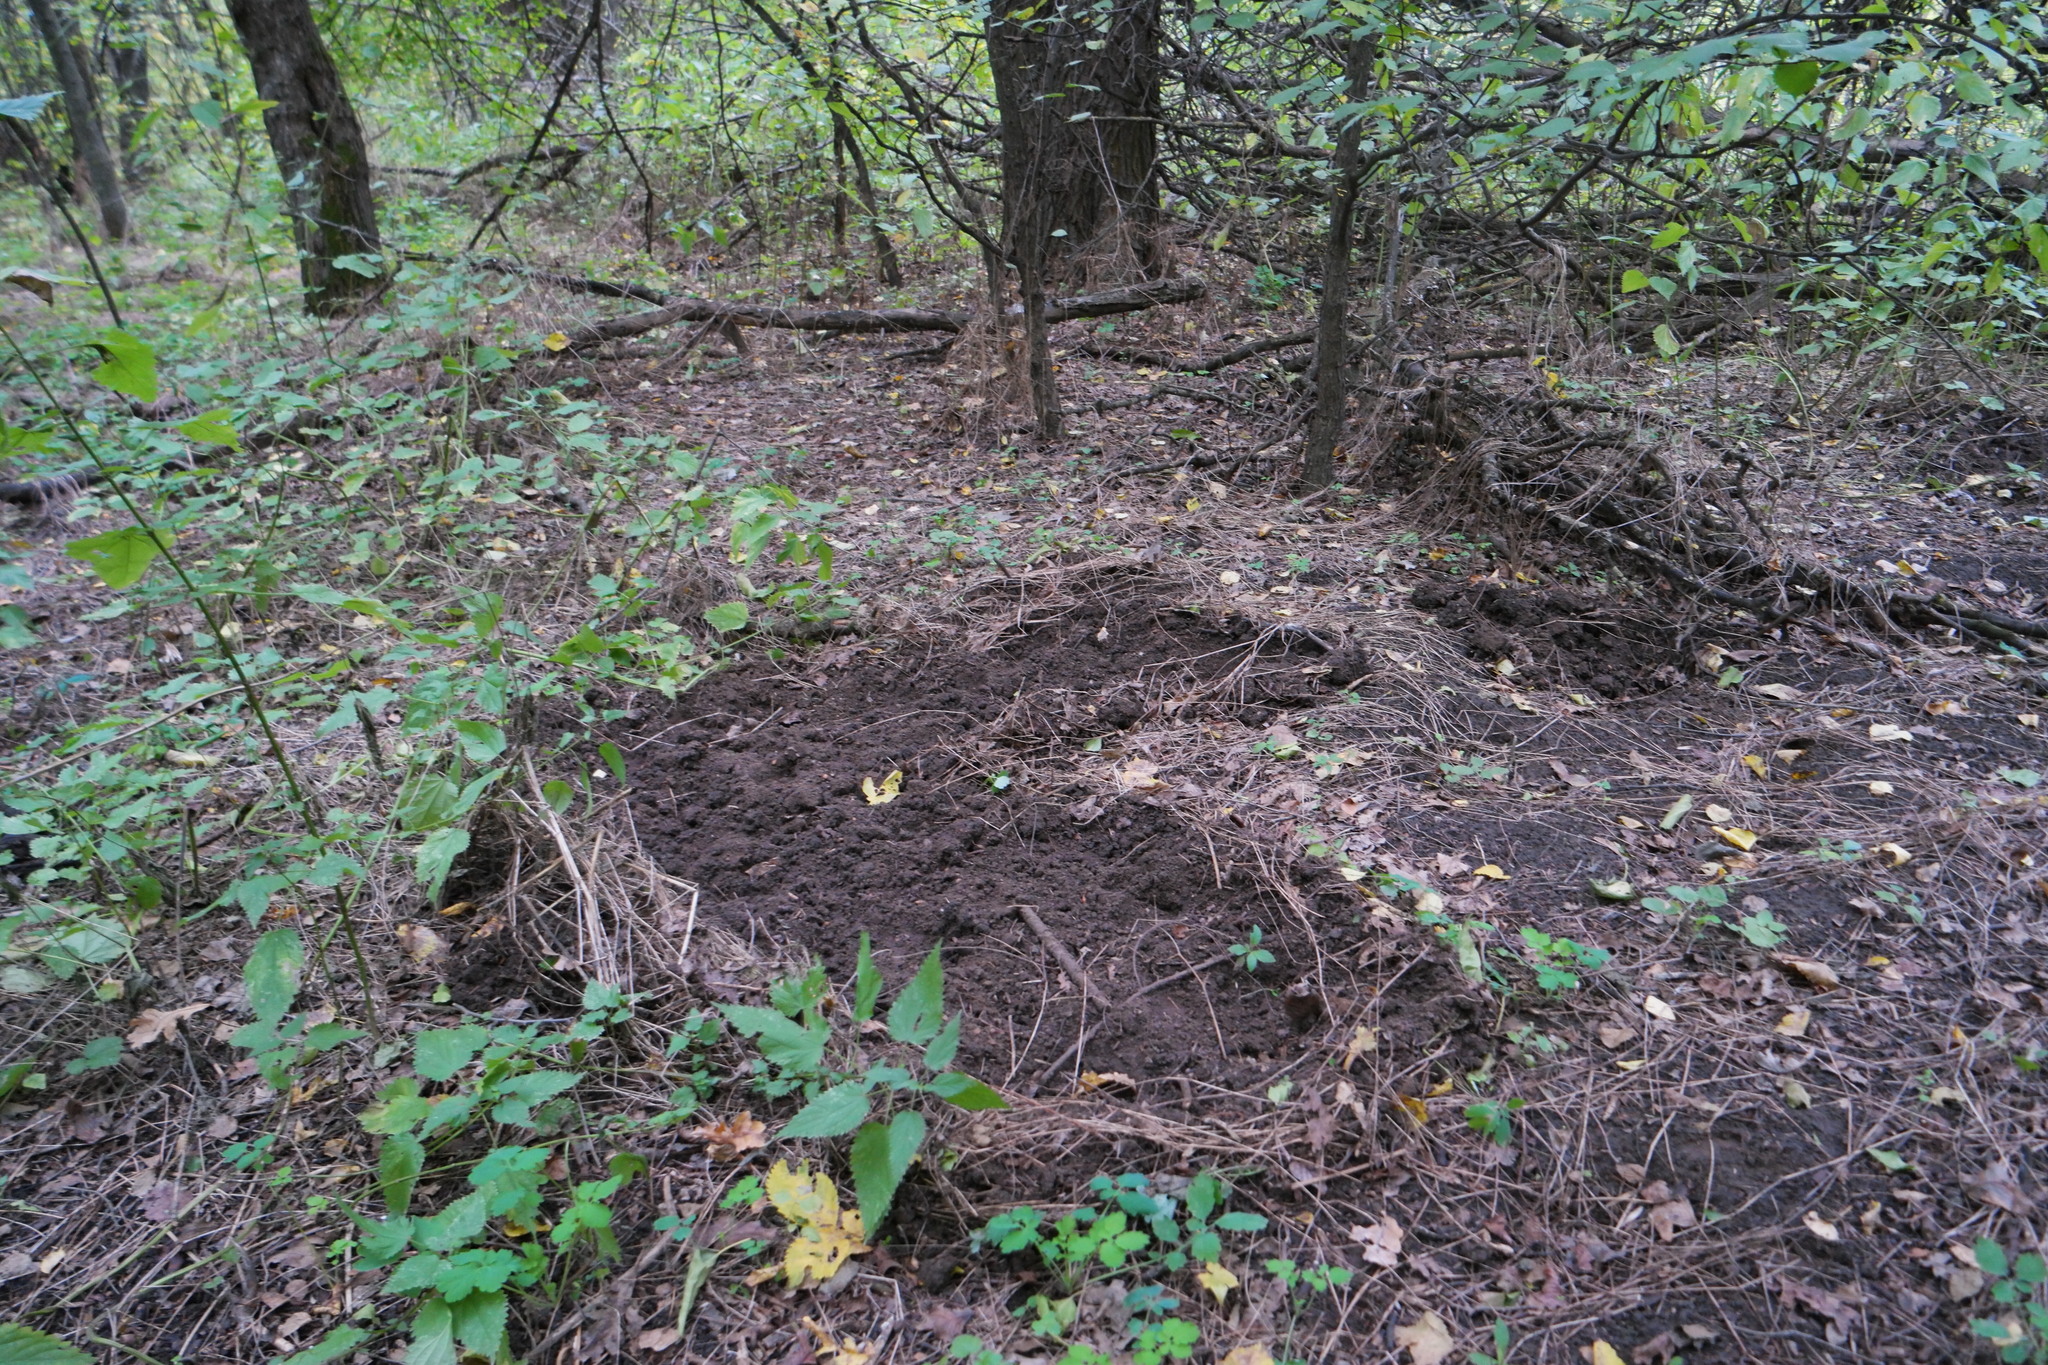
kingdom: Animalia
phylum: Chordata
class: Mammalia
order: Artiodactyla
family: Suidae
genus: Sus
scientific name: Sus scrofa
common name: Wild boar
